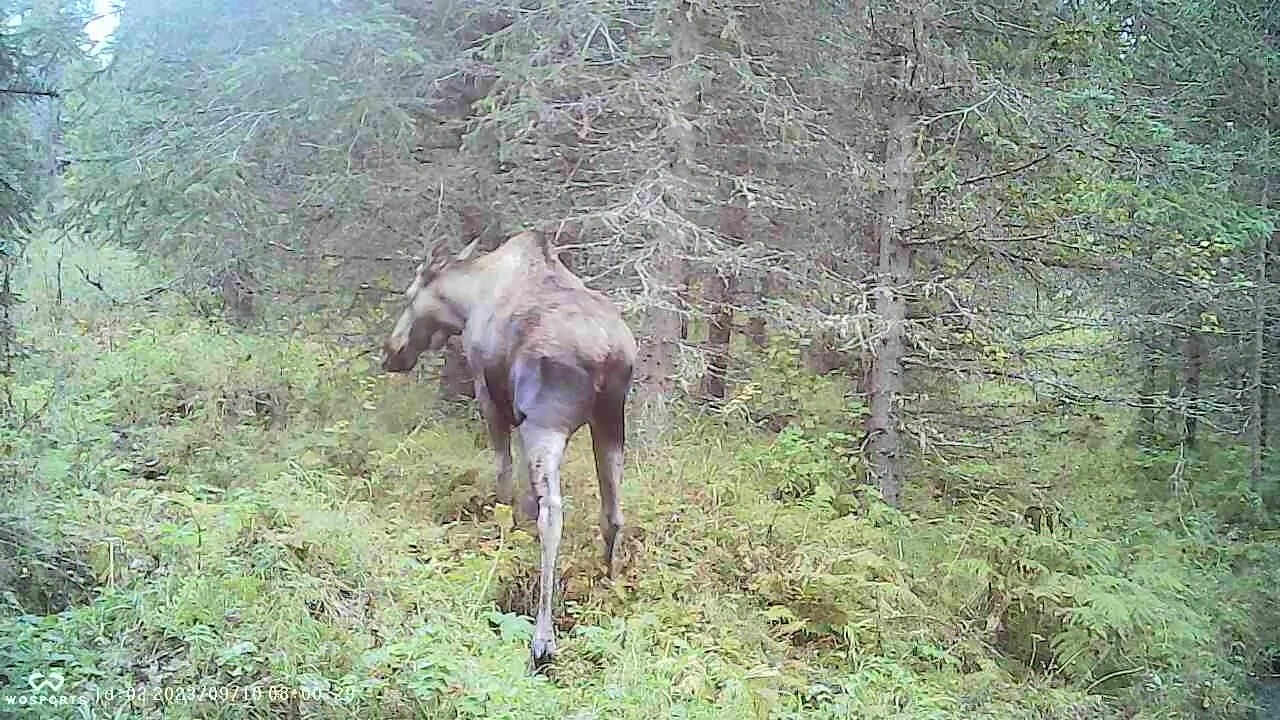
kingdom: Animalia
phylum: Chordata
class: Mammalia
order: Artiodactyla
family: Cervidae
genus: Alces
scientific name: Alces alces
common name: Moose
